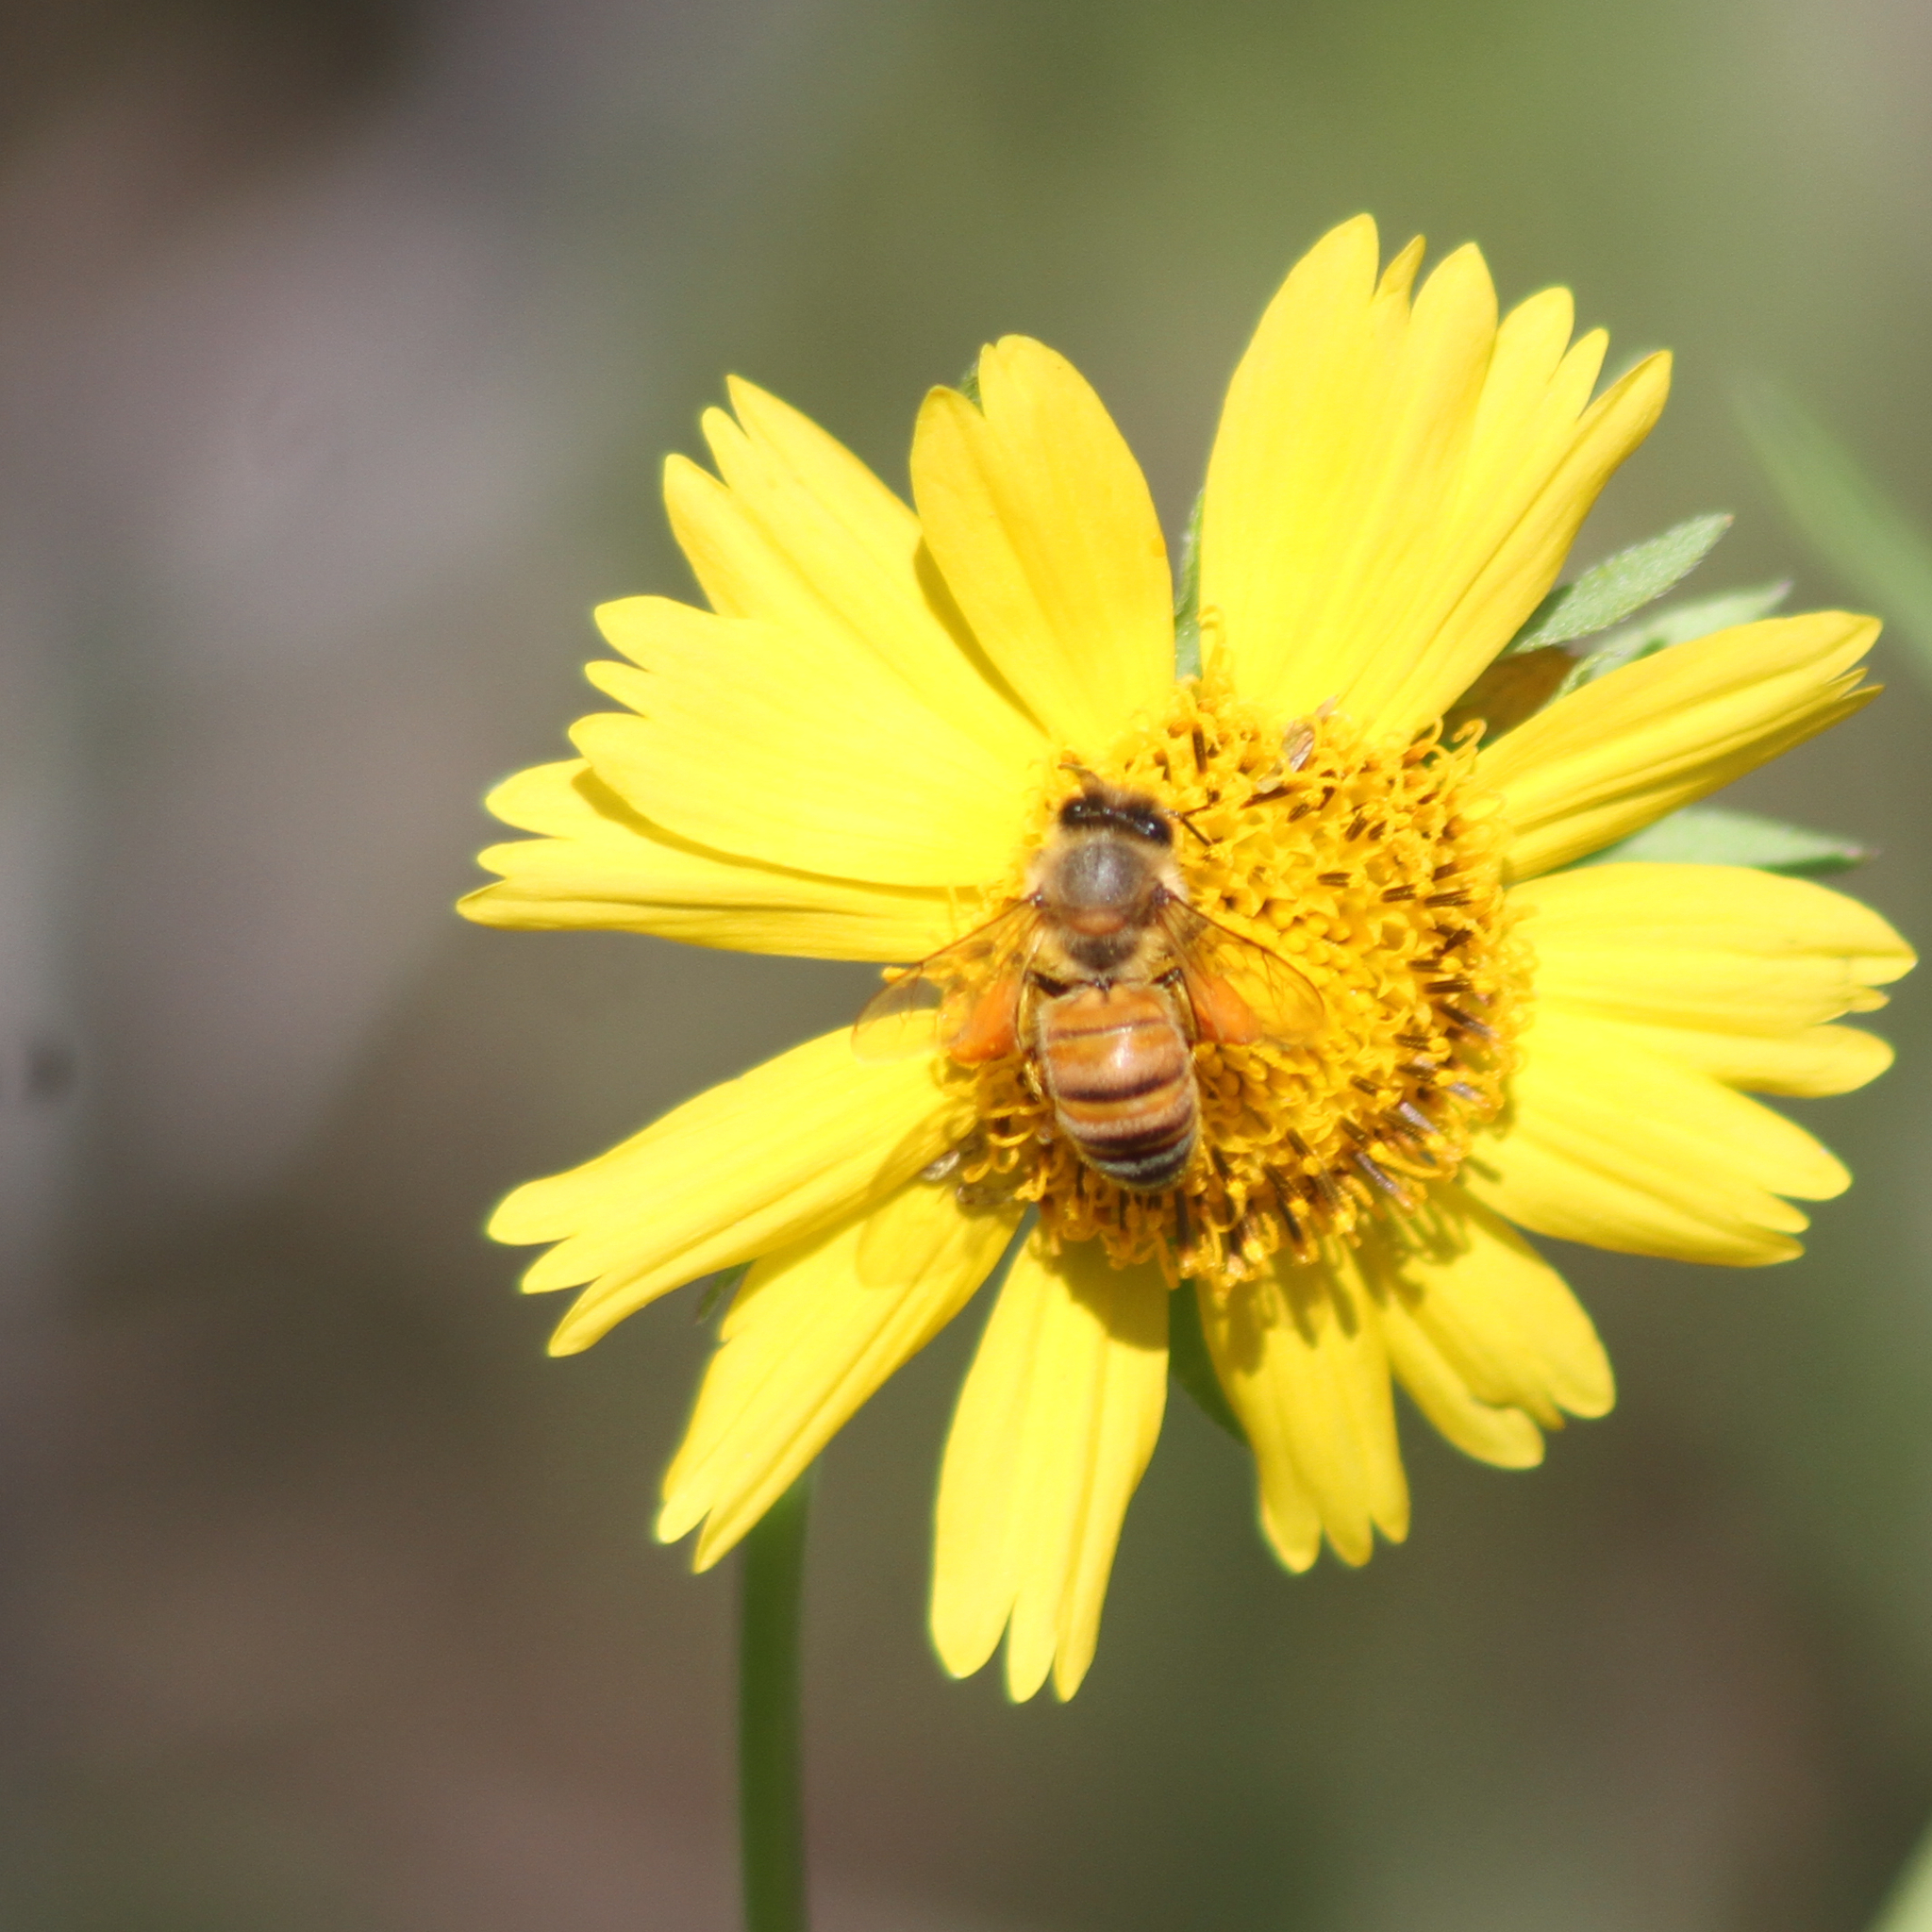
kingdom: Animalia
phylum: Arthropoda
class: Insecta
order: Hymenoptera
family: Apidae
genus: Apis
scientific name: Apis mellifera
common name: Honey bee
